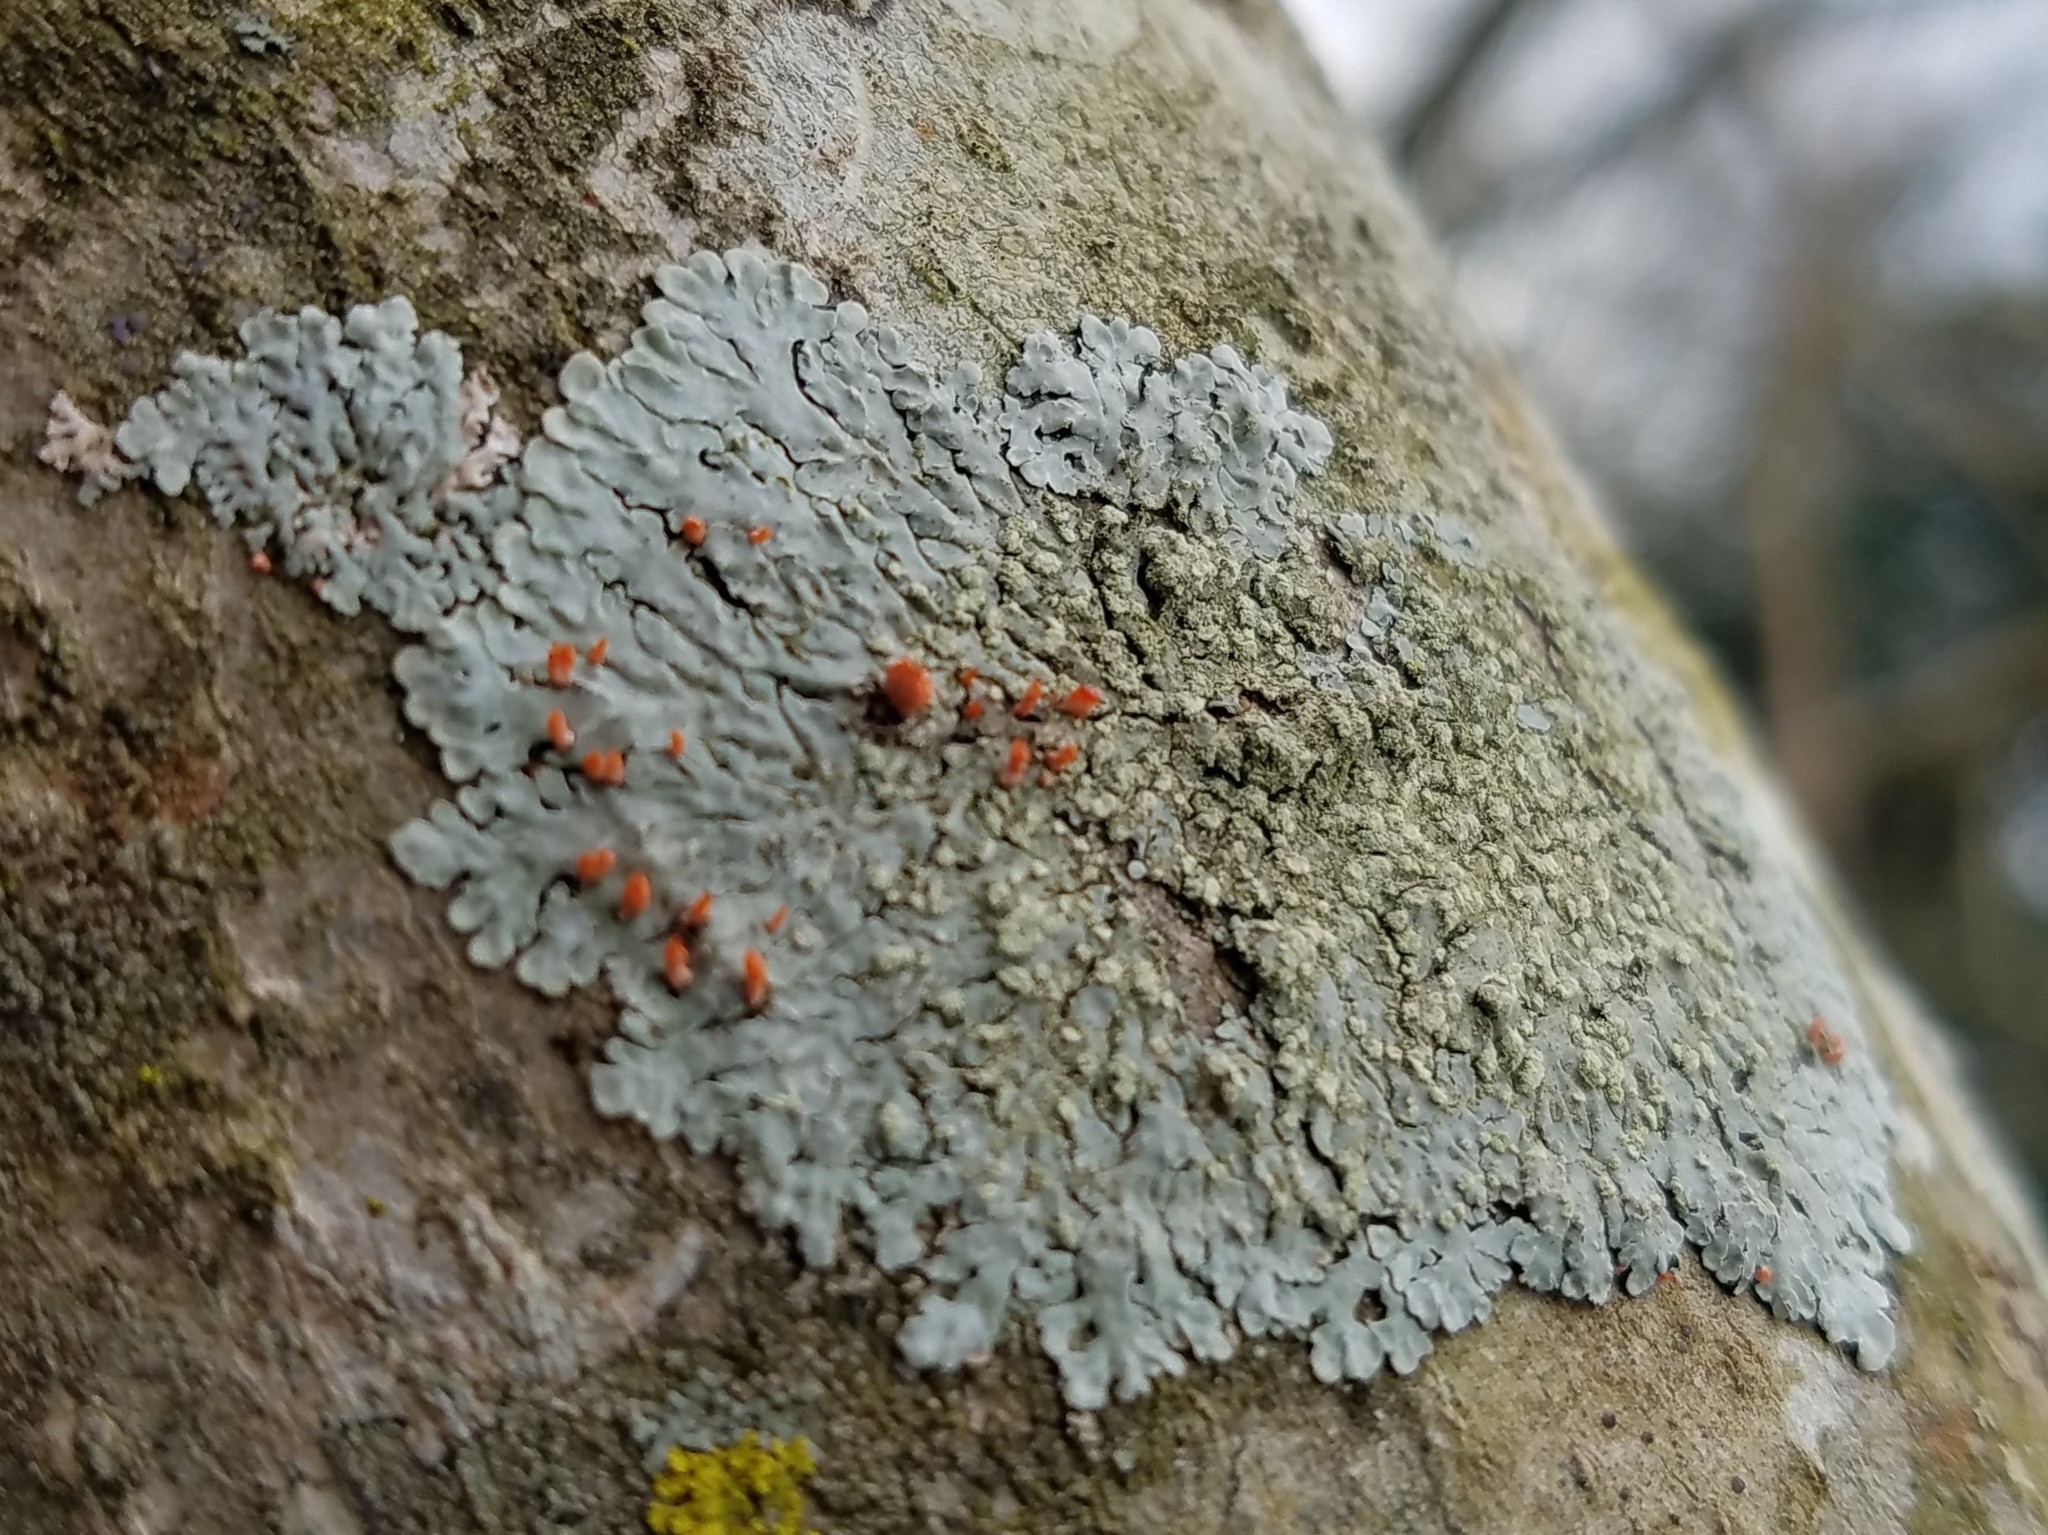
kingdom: Fungi
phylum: Ascomycota
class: Lecanoromycetes
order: Caliciales
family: Caliciaceae
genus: Pyxine
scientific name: Pyxine caesiopruinosa
